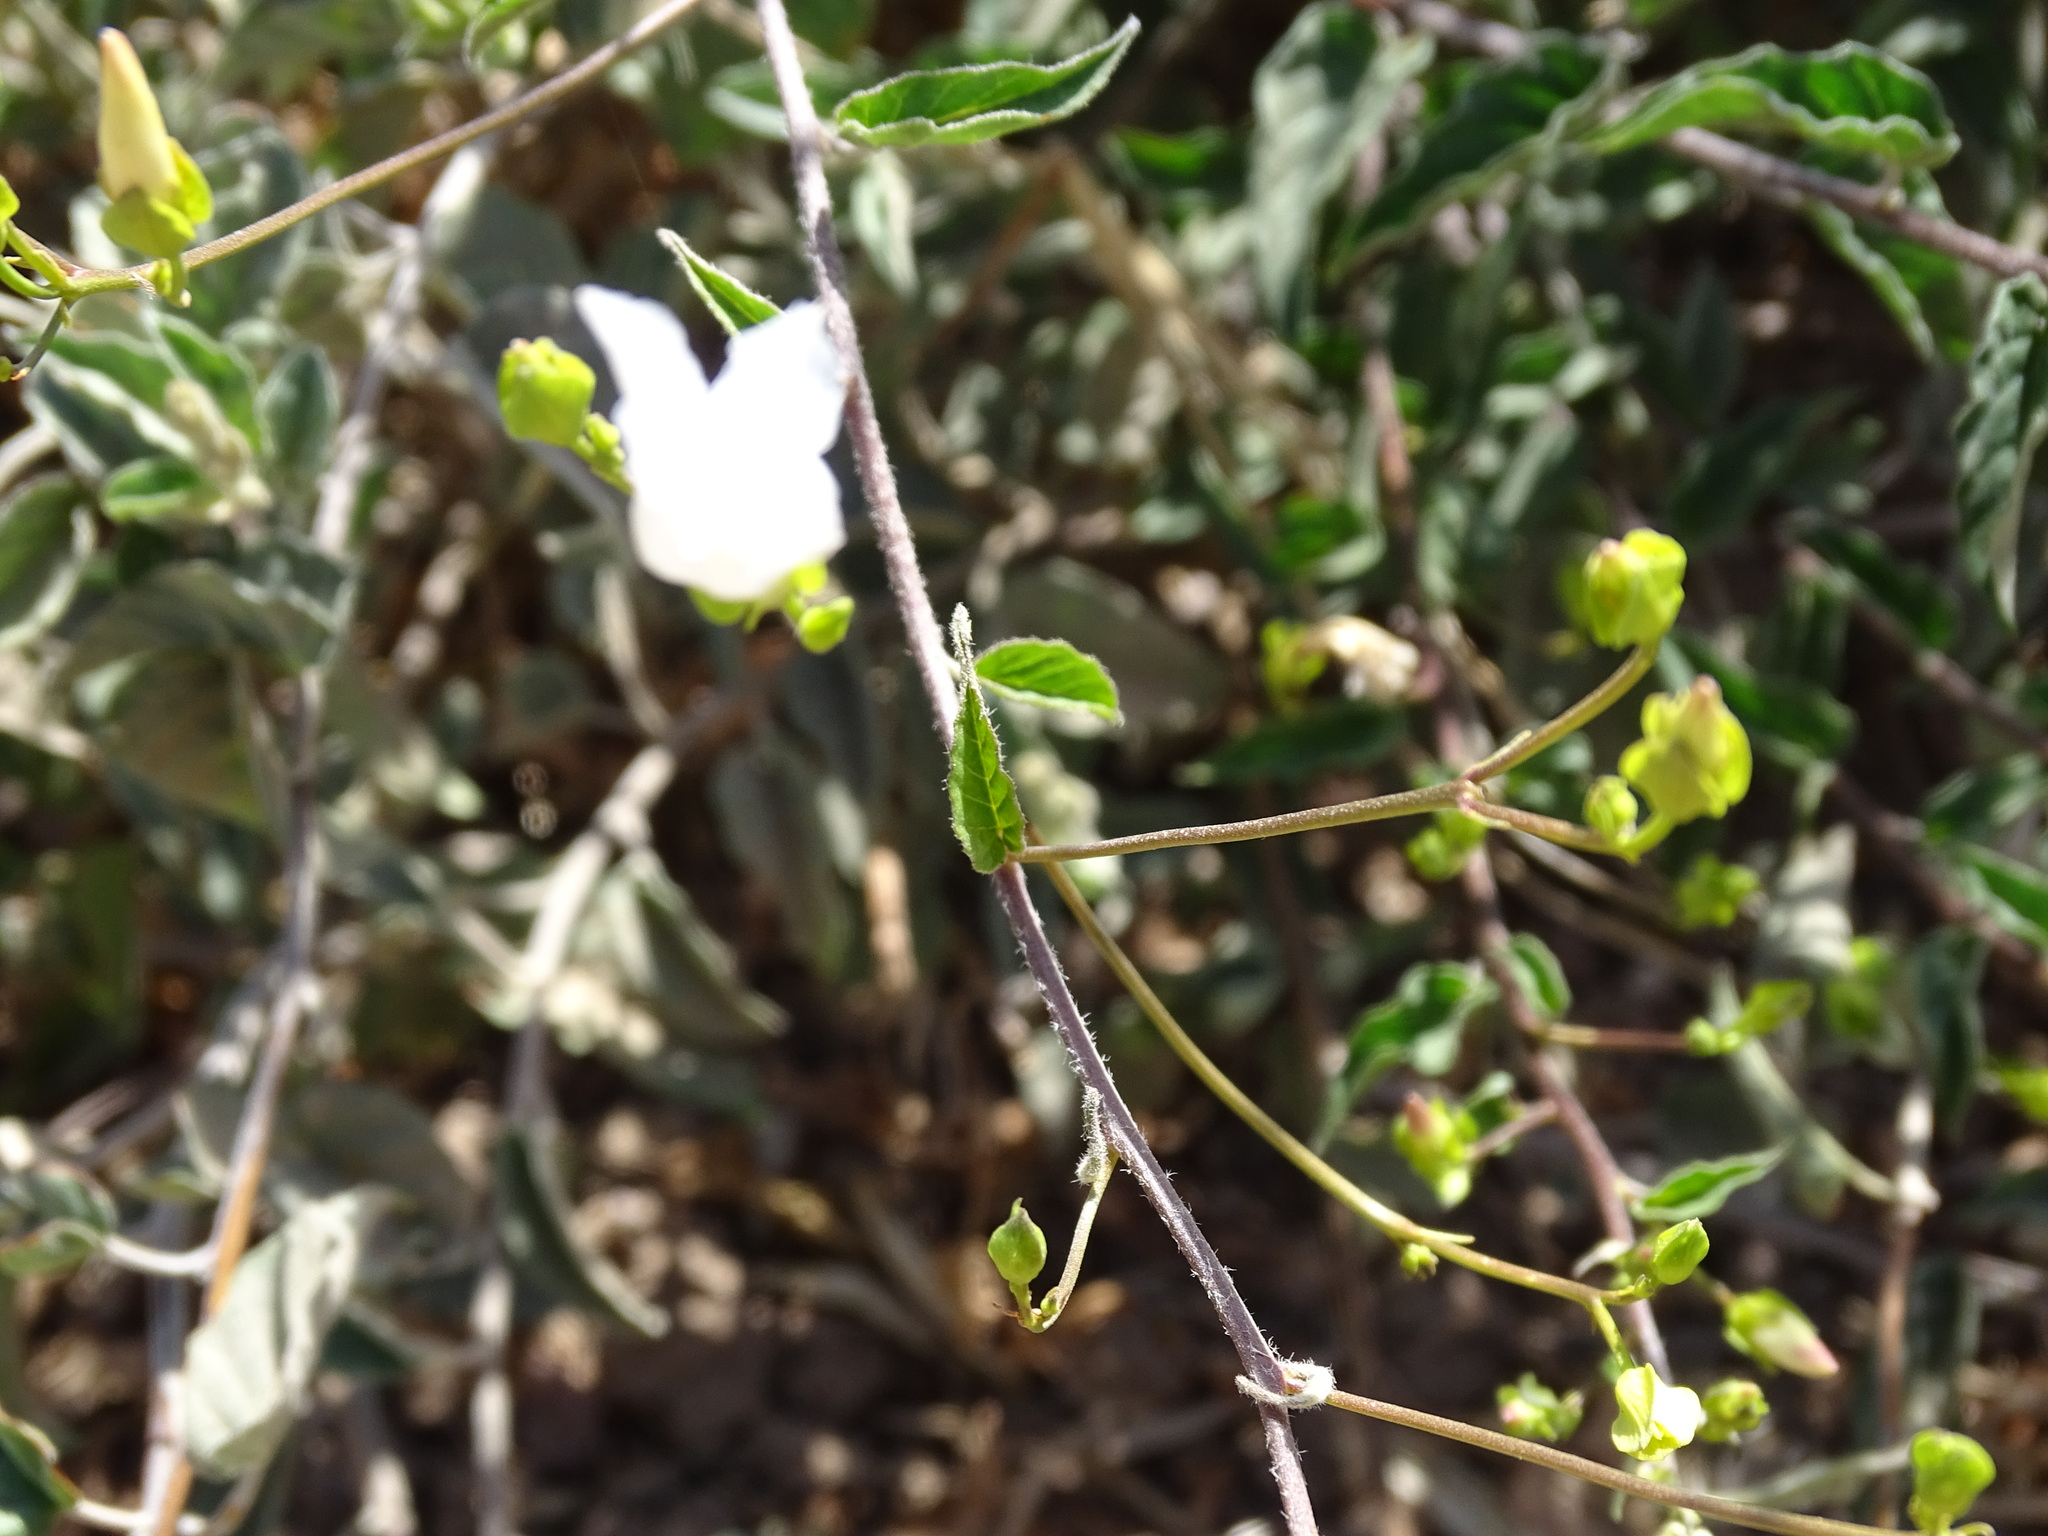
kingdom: Plantae
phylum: Tracheophyta
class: Magnoliopsida
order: Solanales
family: Convolvulaceae
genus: Jacquemontia
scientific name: Jacquemontia pringlei
